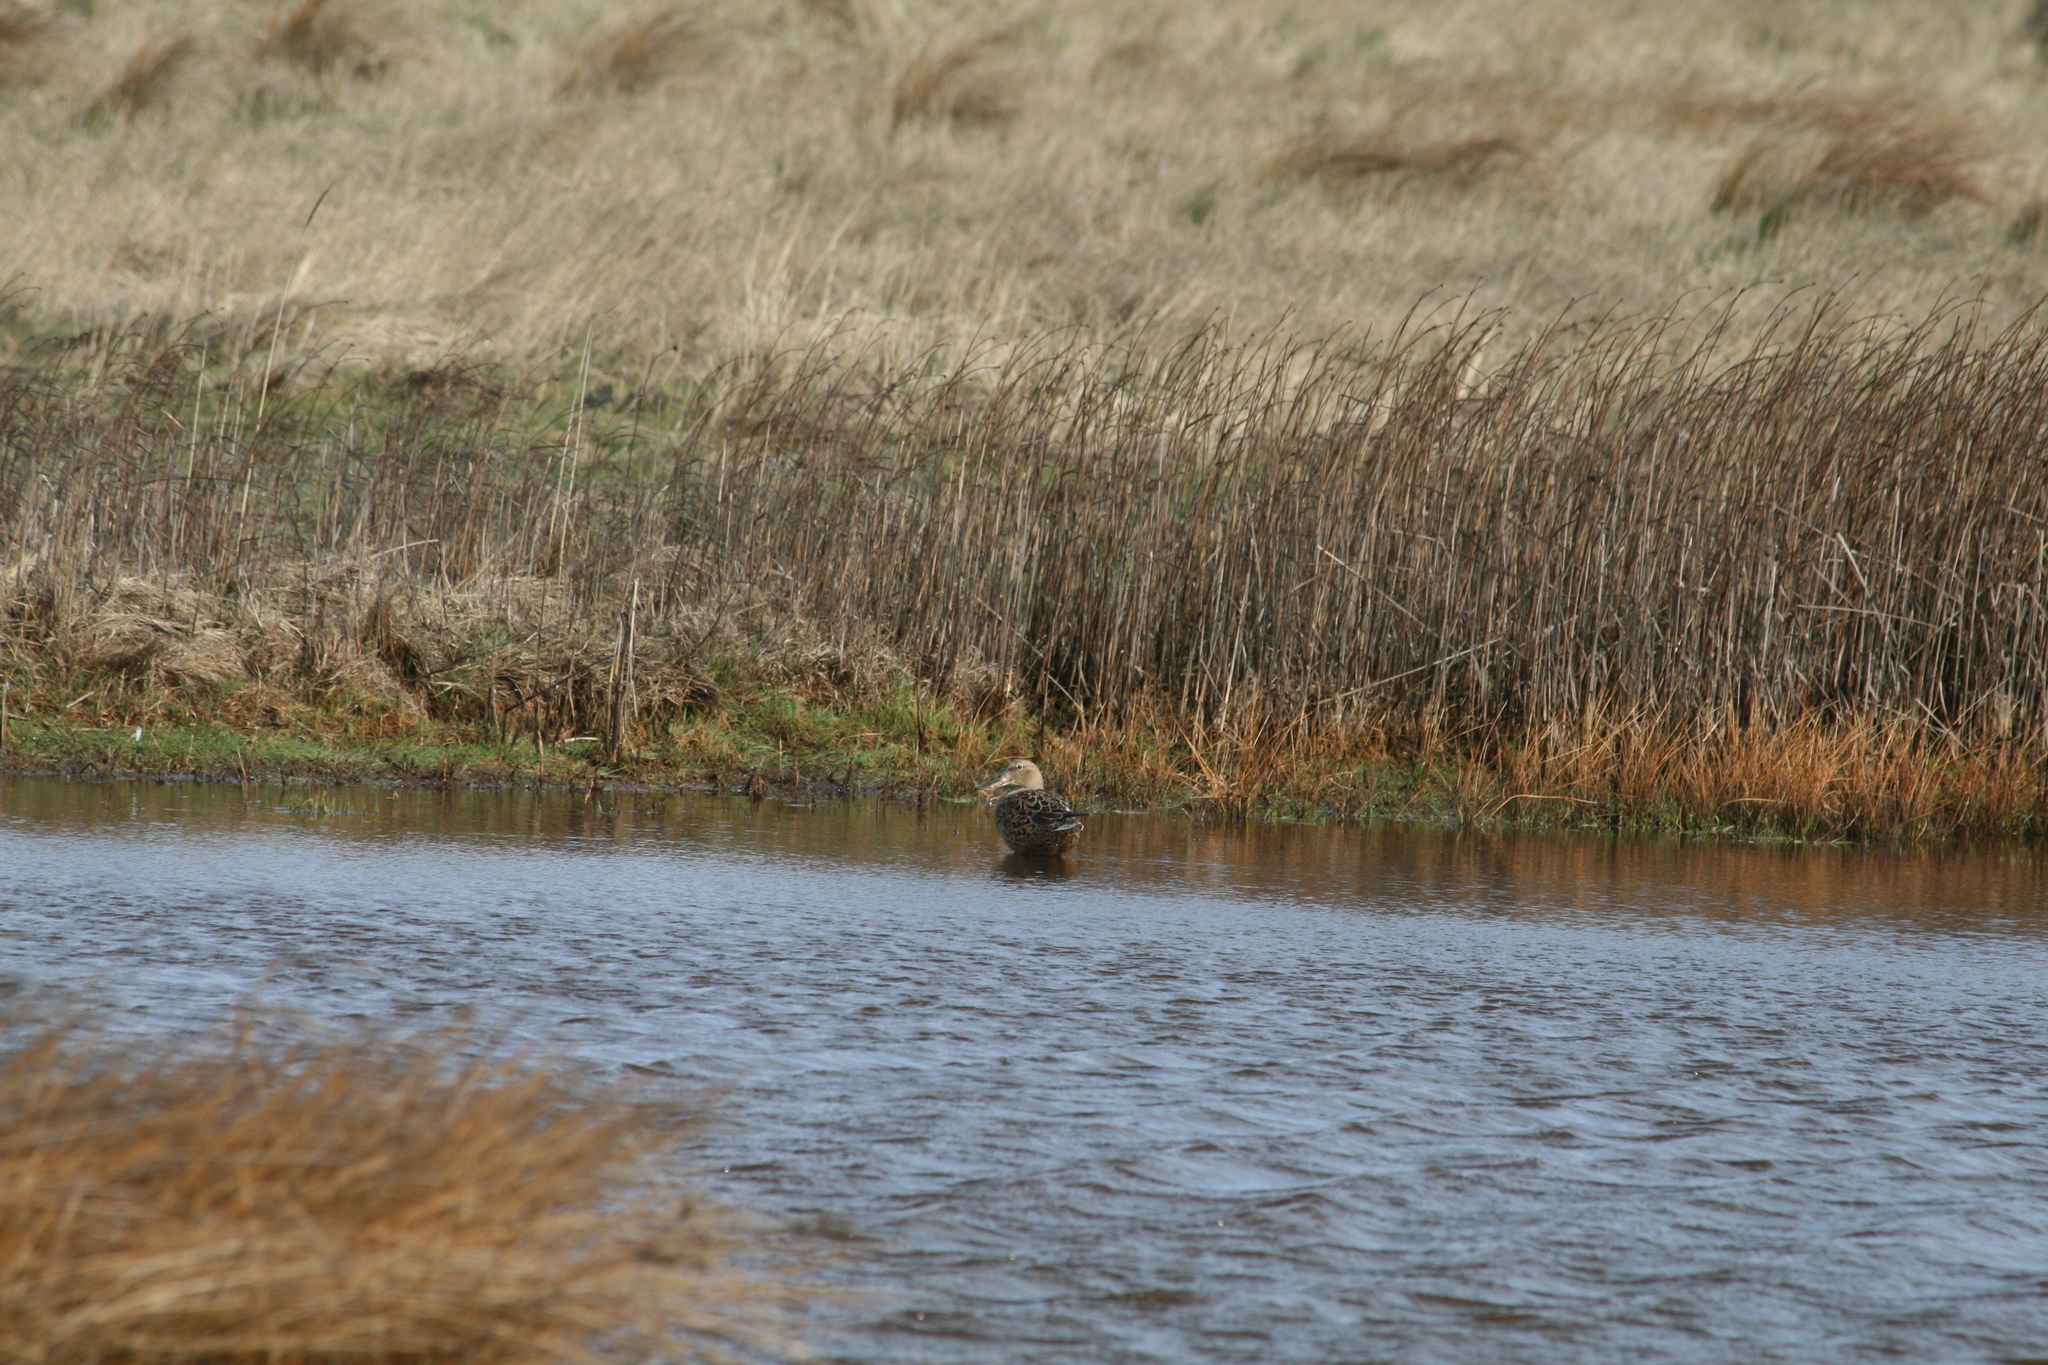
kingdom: Animalia
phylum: Chordata
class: Aves
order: Anseriformes
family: Anatidae
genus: Spatula
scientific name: Spatula clypeata
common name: Northern shoveler
